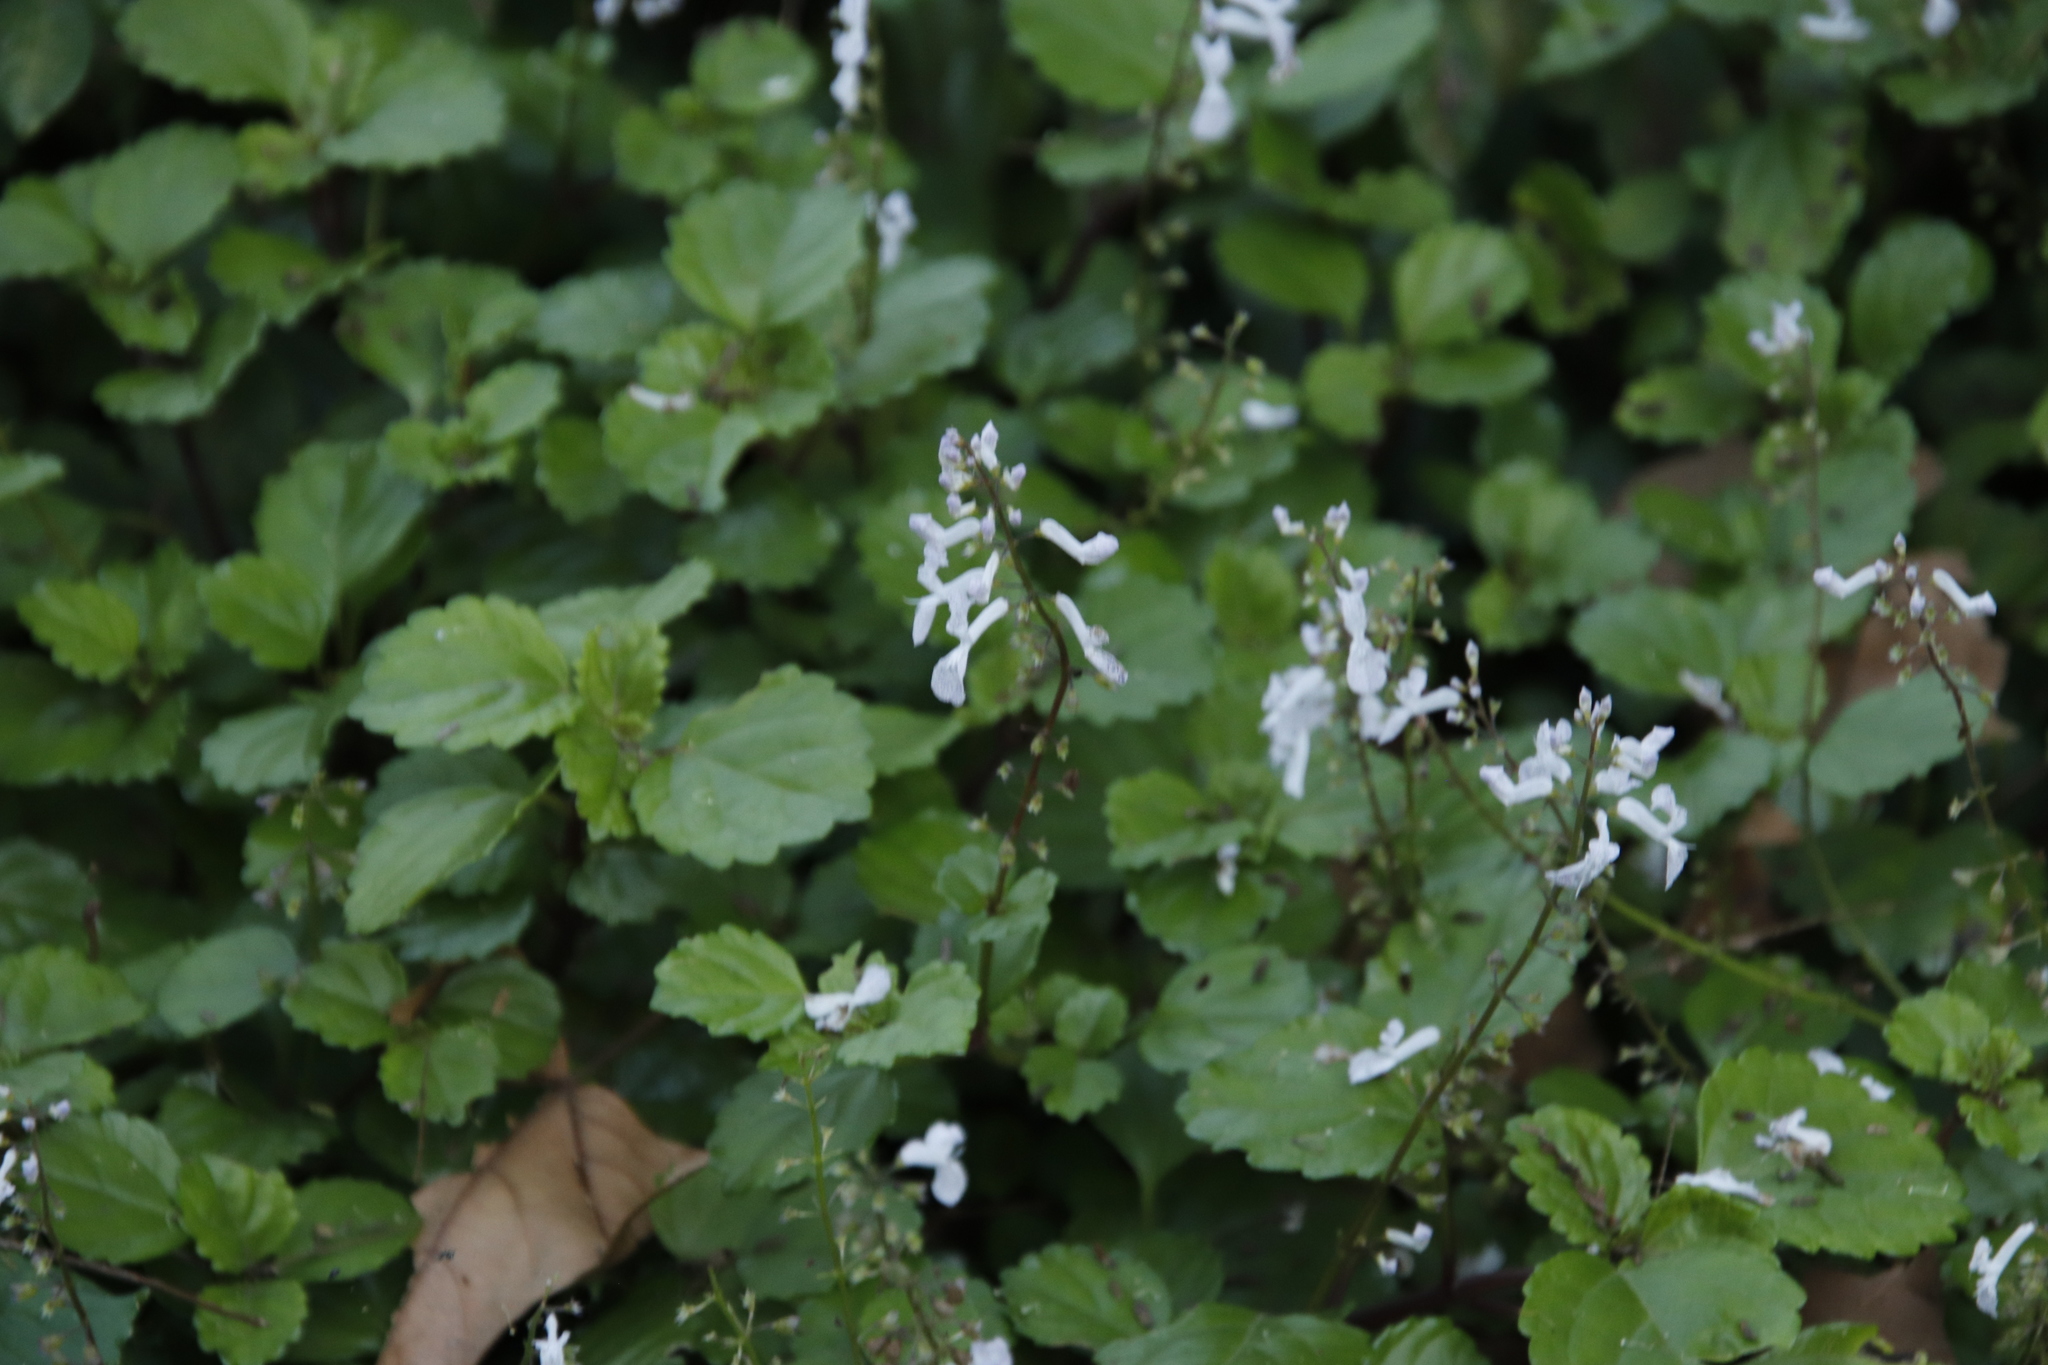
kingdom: Plantae
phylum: Tracheophyta
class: Magnoliopsida
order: Lamiales
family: Lamiaceae
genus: Plectranthus
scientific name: Plectranthus verticillatus
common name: Whorled plectranthus
